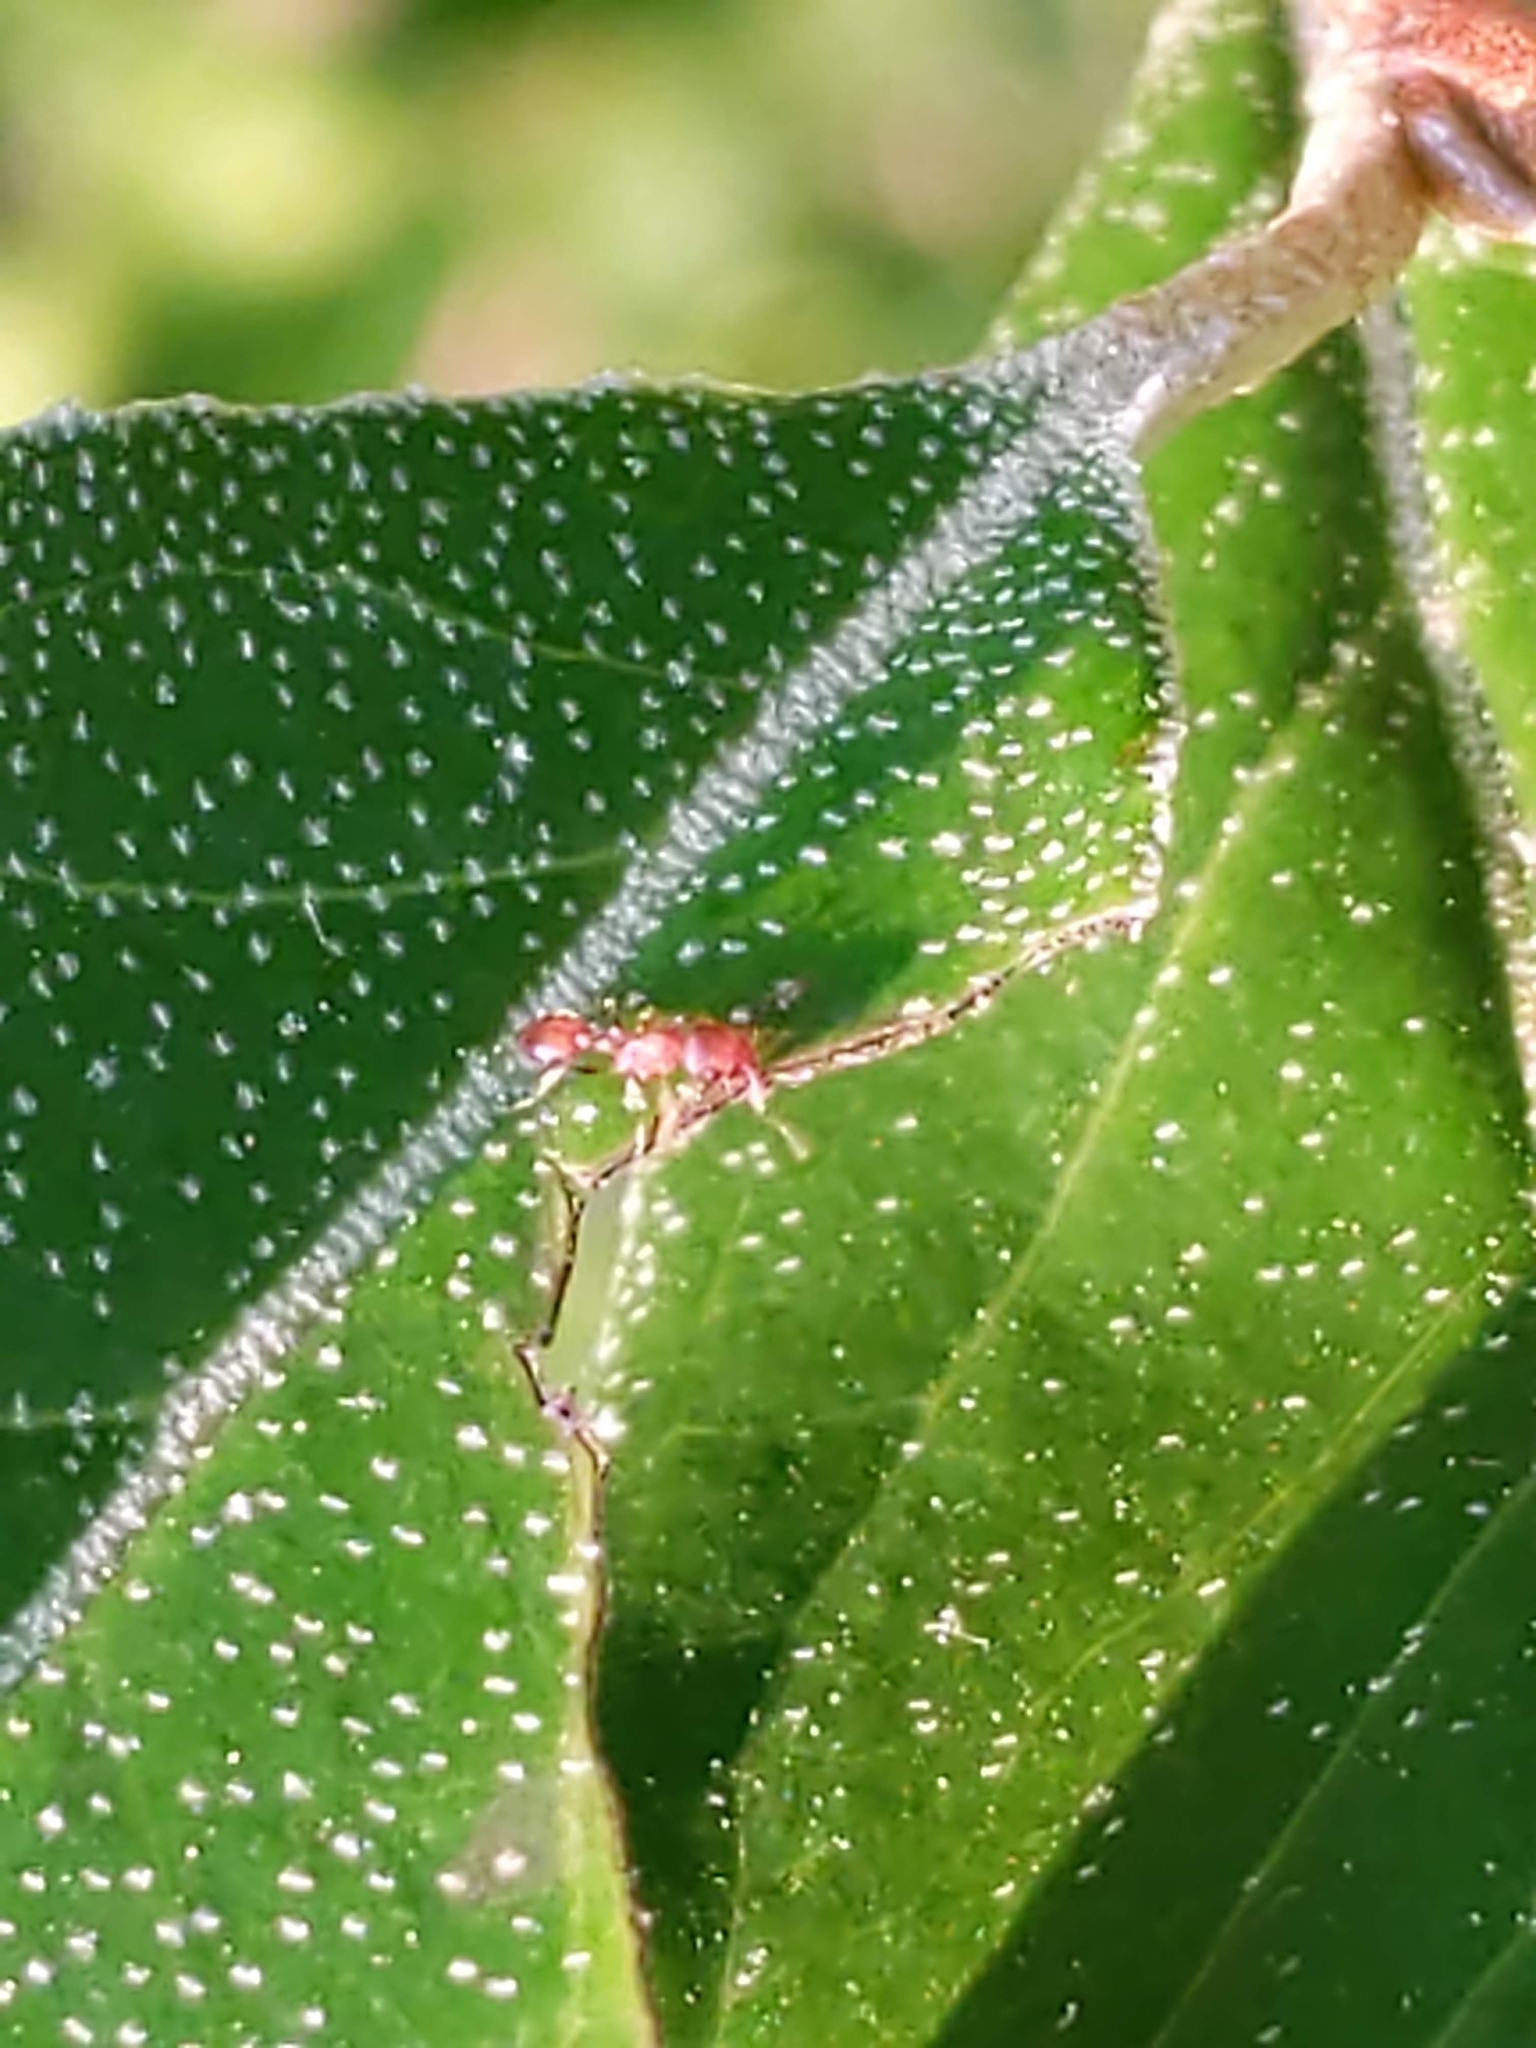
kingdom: Animalia
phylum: Arthropoda
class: Insecta
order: Hymenoptera
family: Formicidae
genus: Temnothorax
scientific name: Temnothorax
